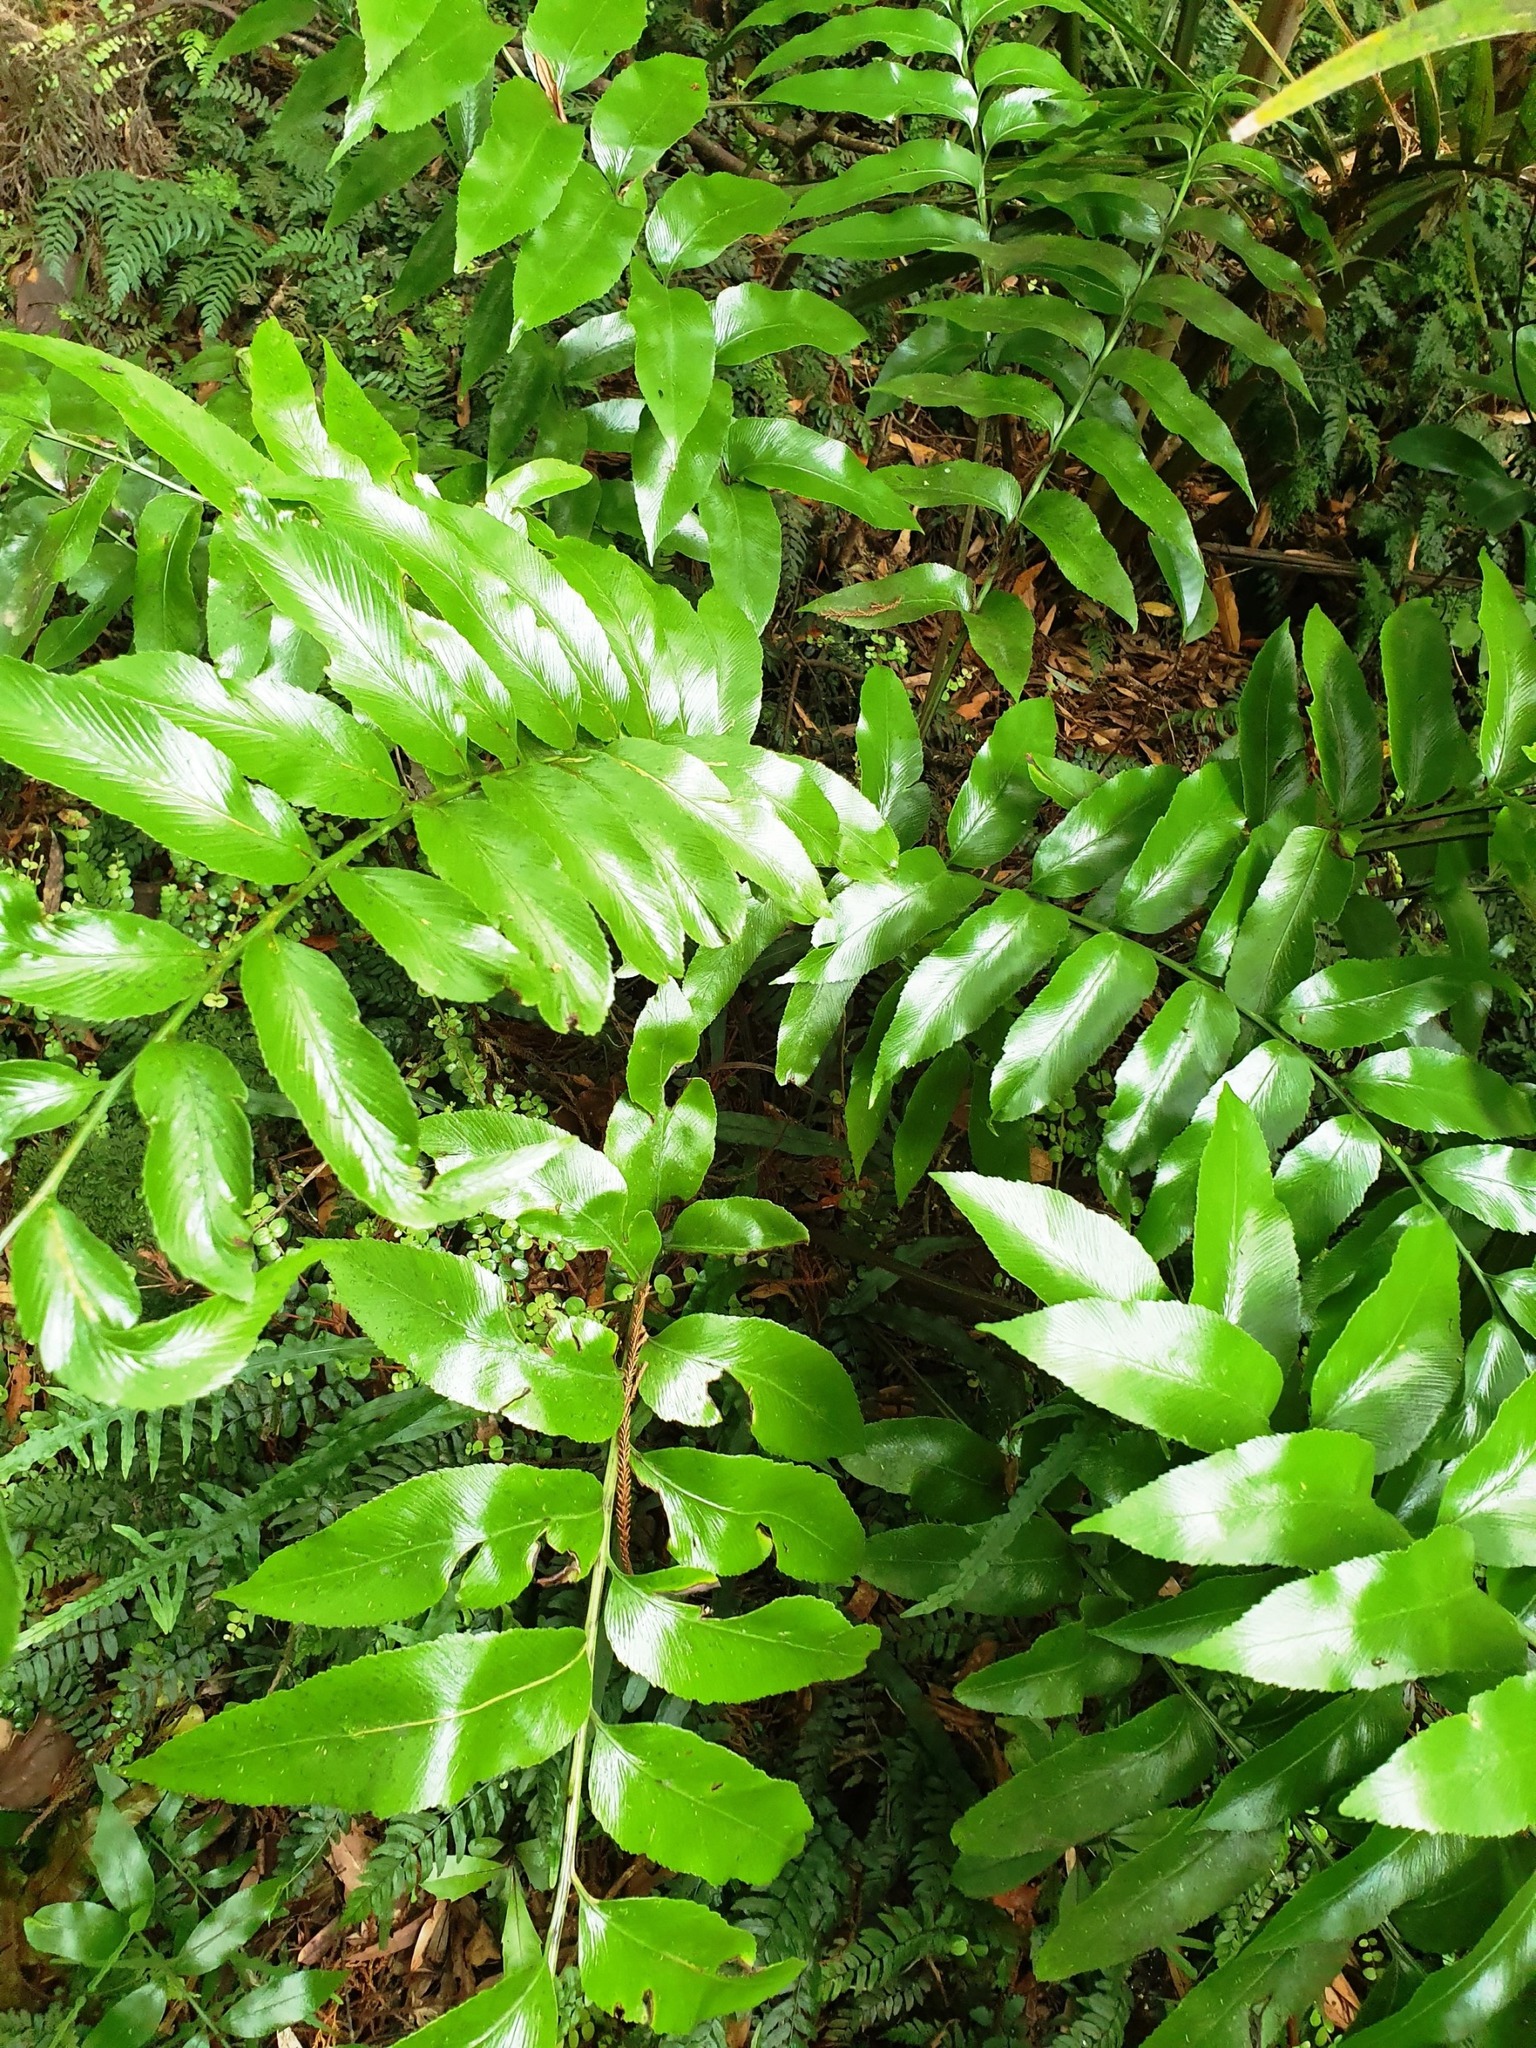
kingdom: Plantae
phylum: Tracheophyta
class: Polypodiopsida
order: Polypodiales
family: Aspleniaceae
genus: Asplenium
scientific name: Asplenium oblongifolium
